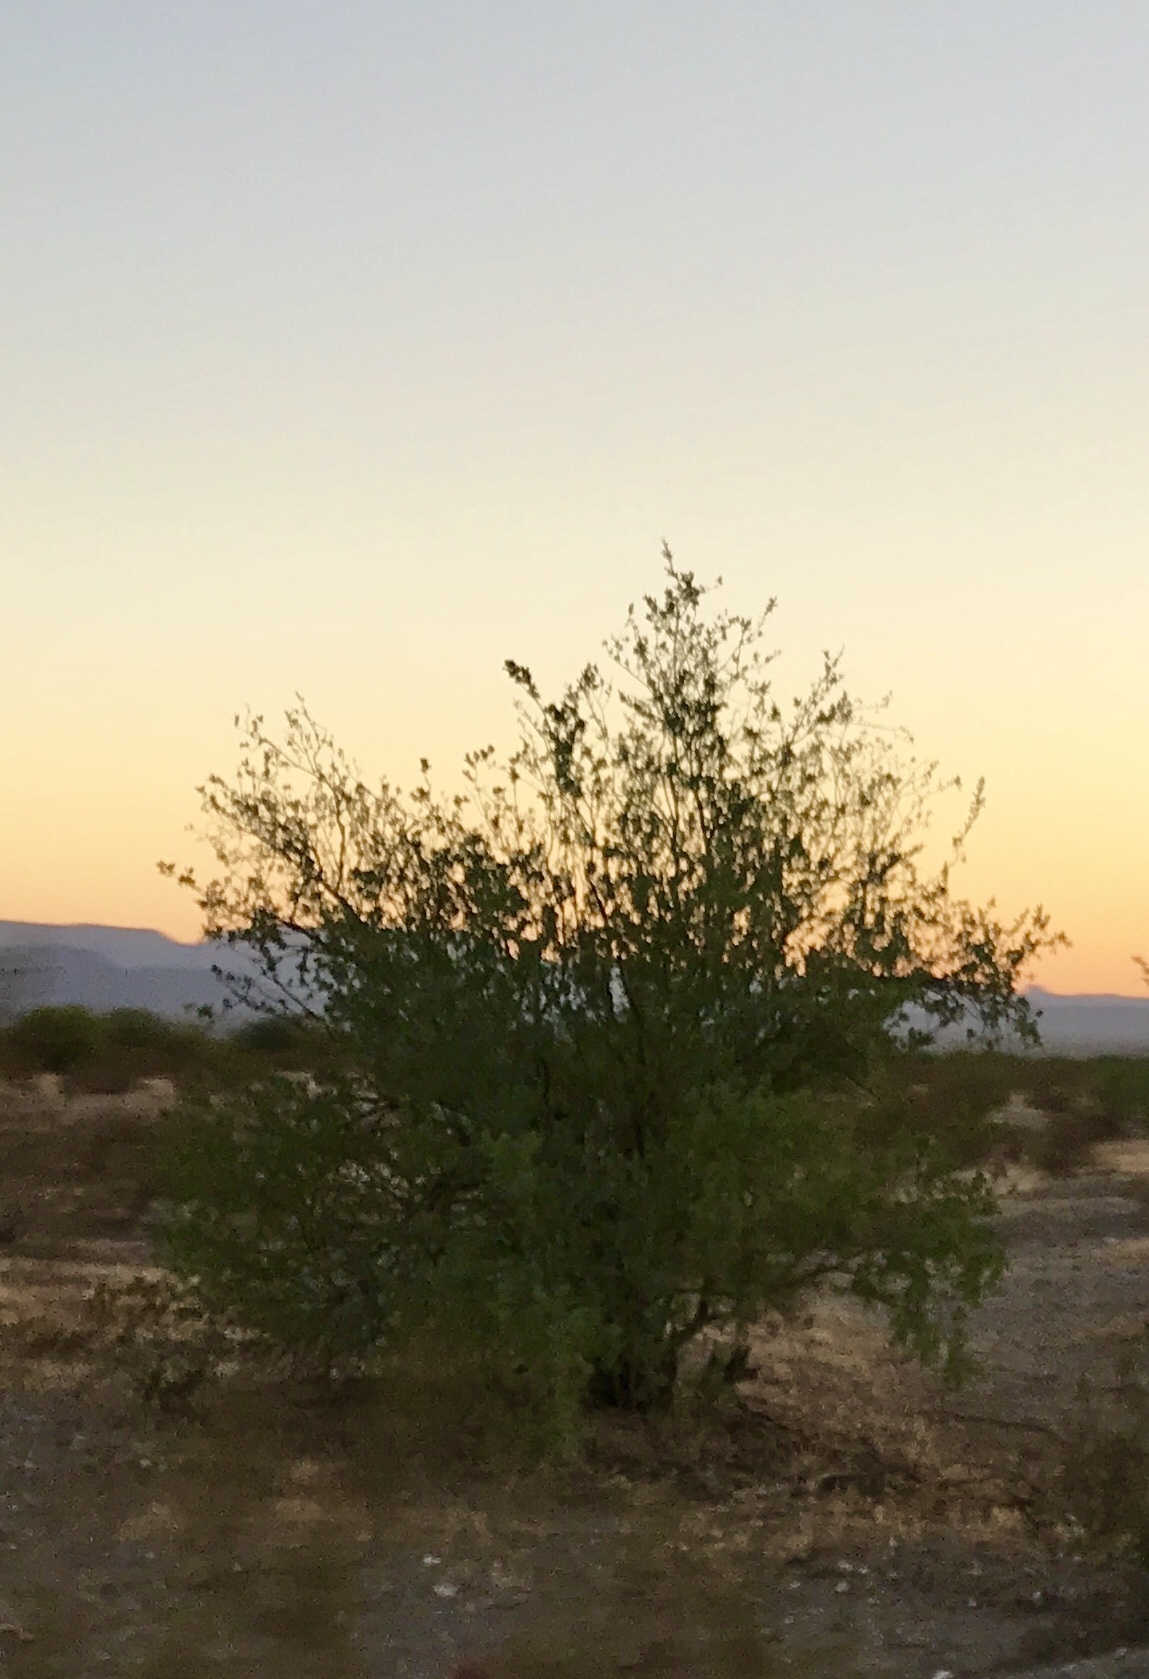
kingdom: Plantae
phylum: Tracheophyta
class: Magnoliopsida
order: Fabales
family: Fabaceae
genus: Prosopis
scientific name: Prosopis velutina
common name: Velvet mesquite
